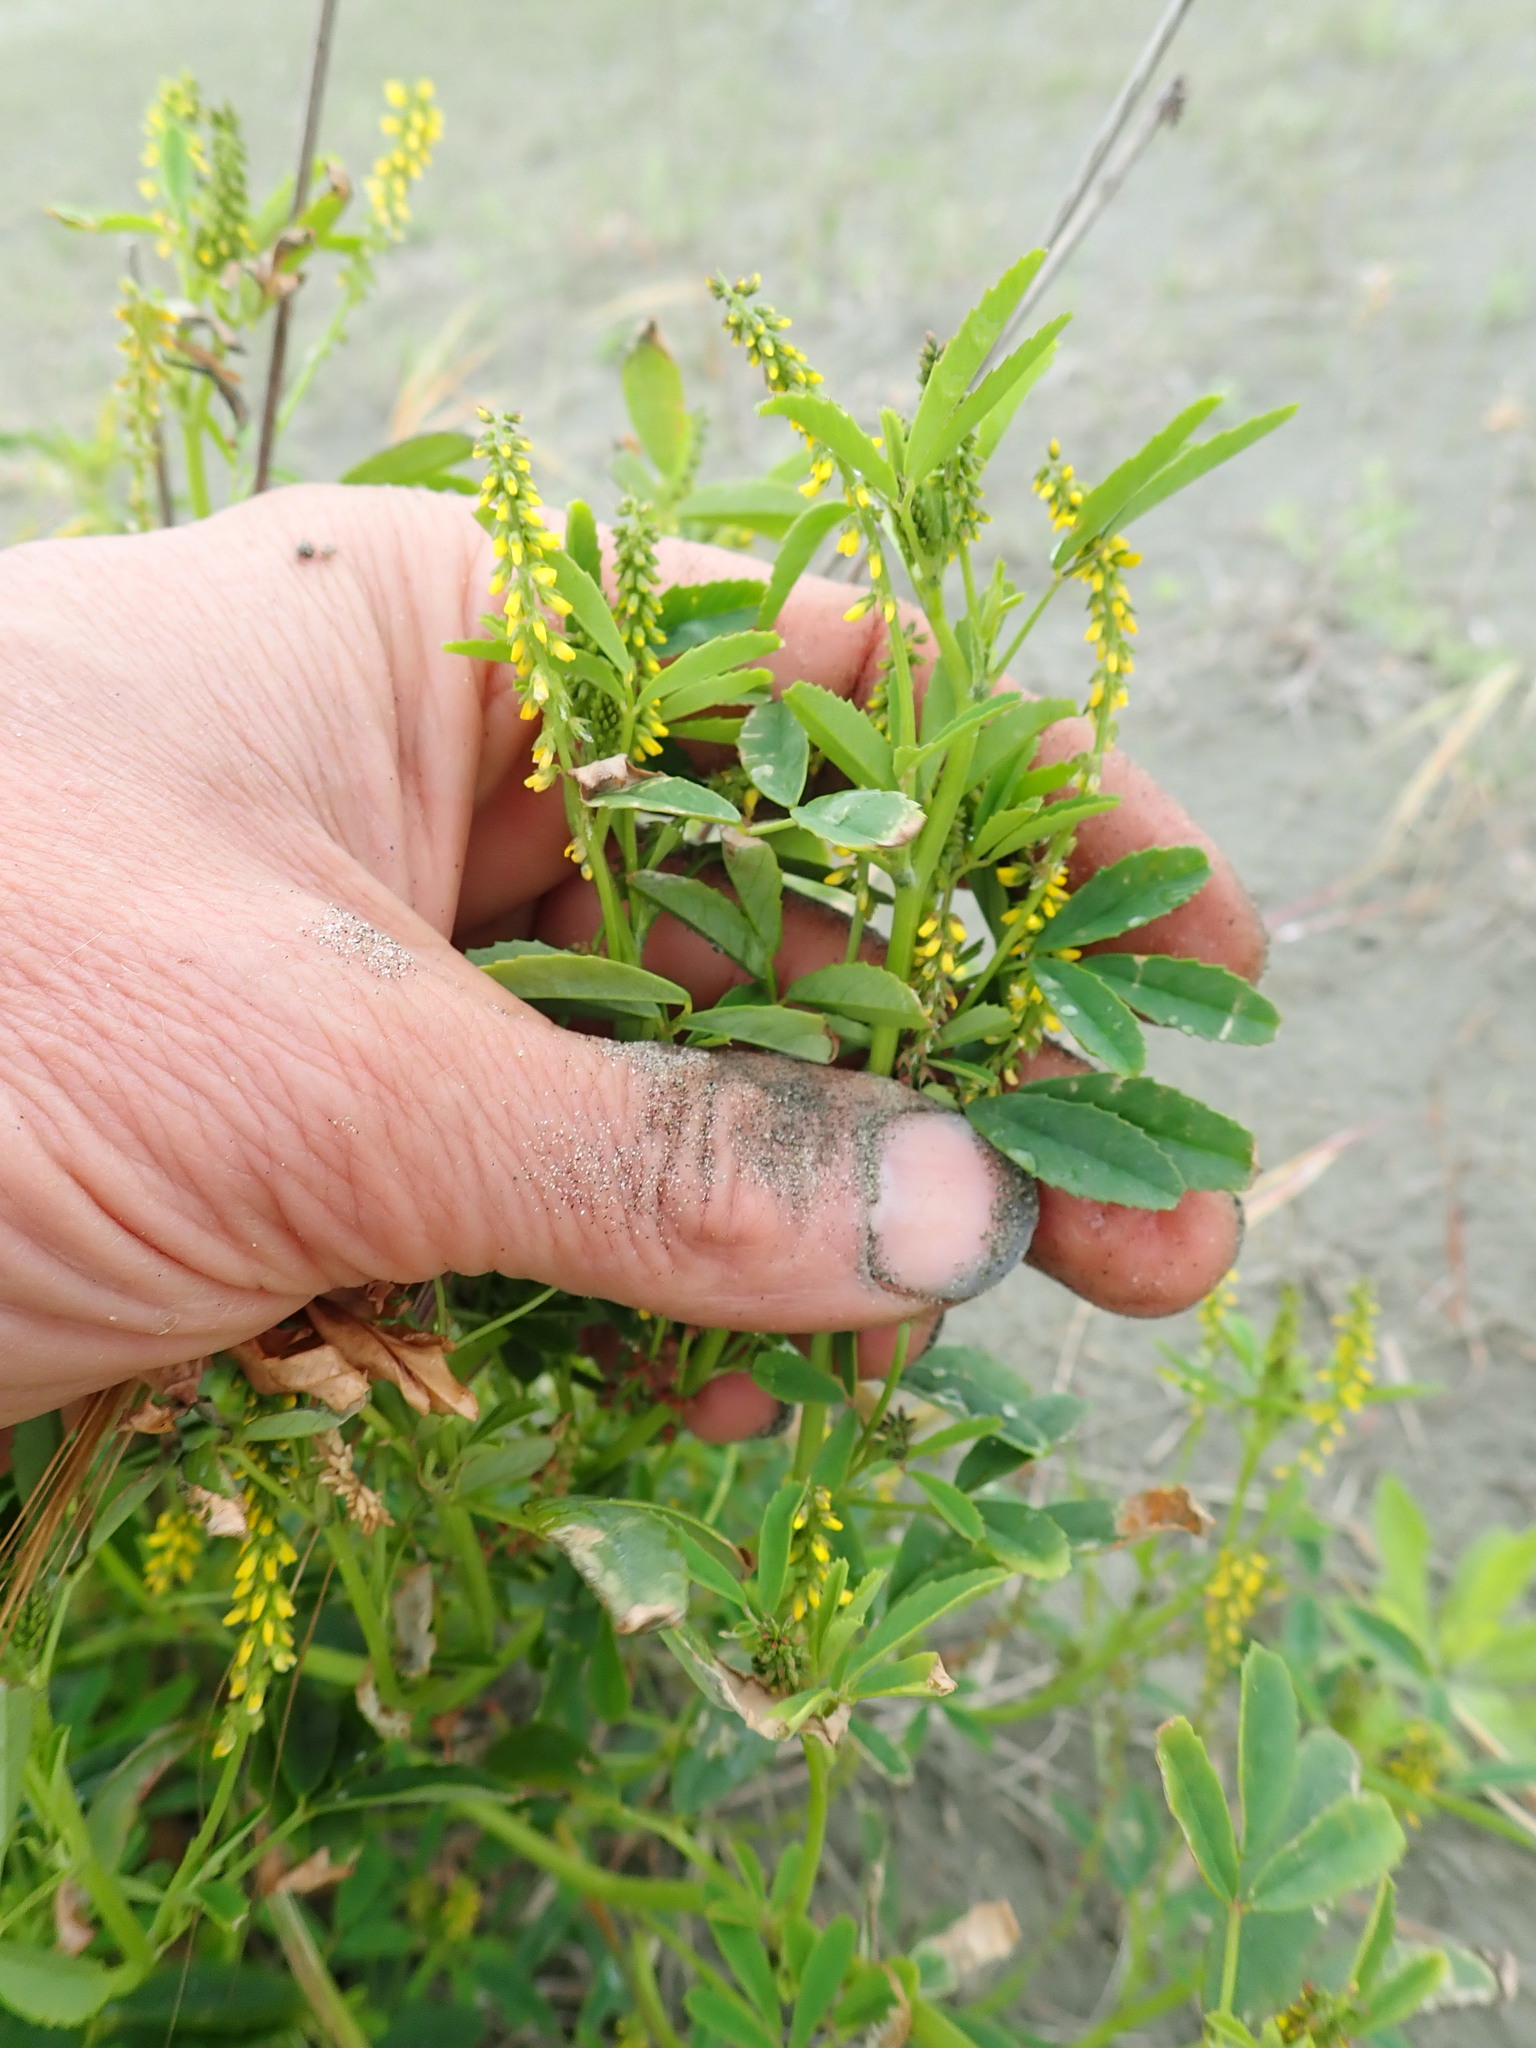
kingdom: Plantae
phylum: Tracheophyta
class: Magnoliopsida
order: Fabales
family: Fabaceae
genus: Melilotus
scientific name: Melilotus indicus
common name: Small melilot
